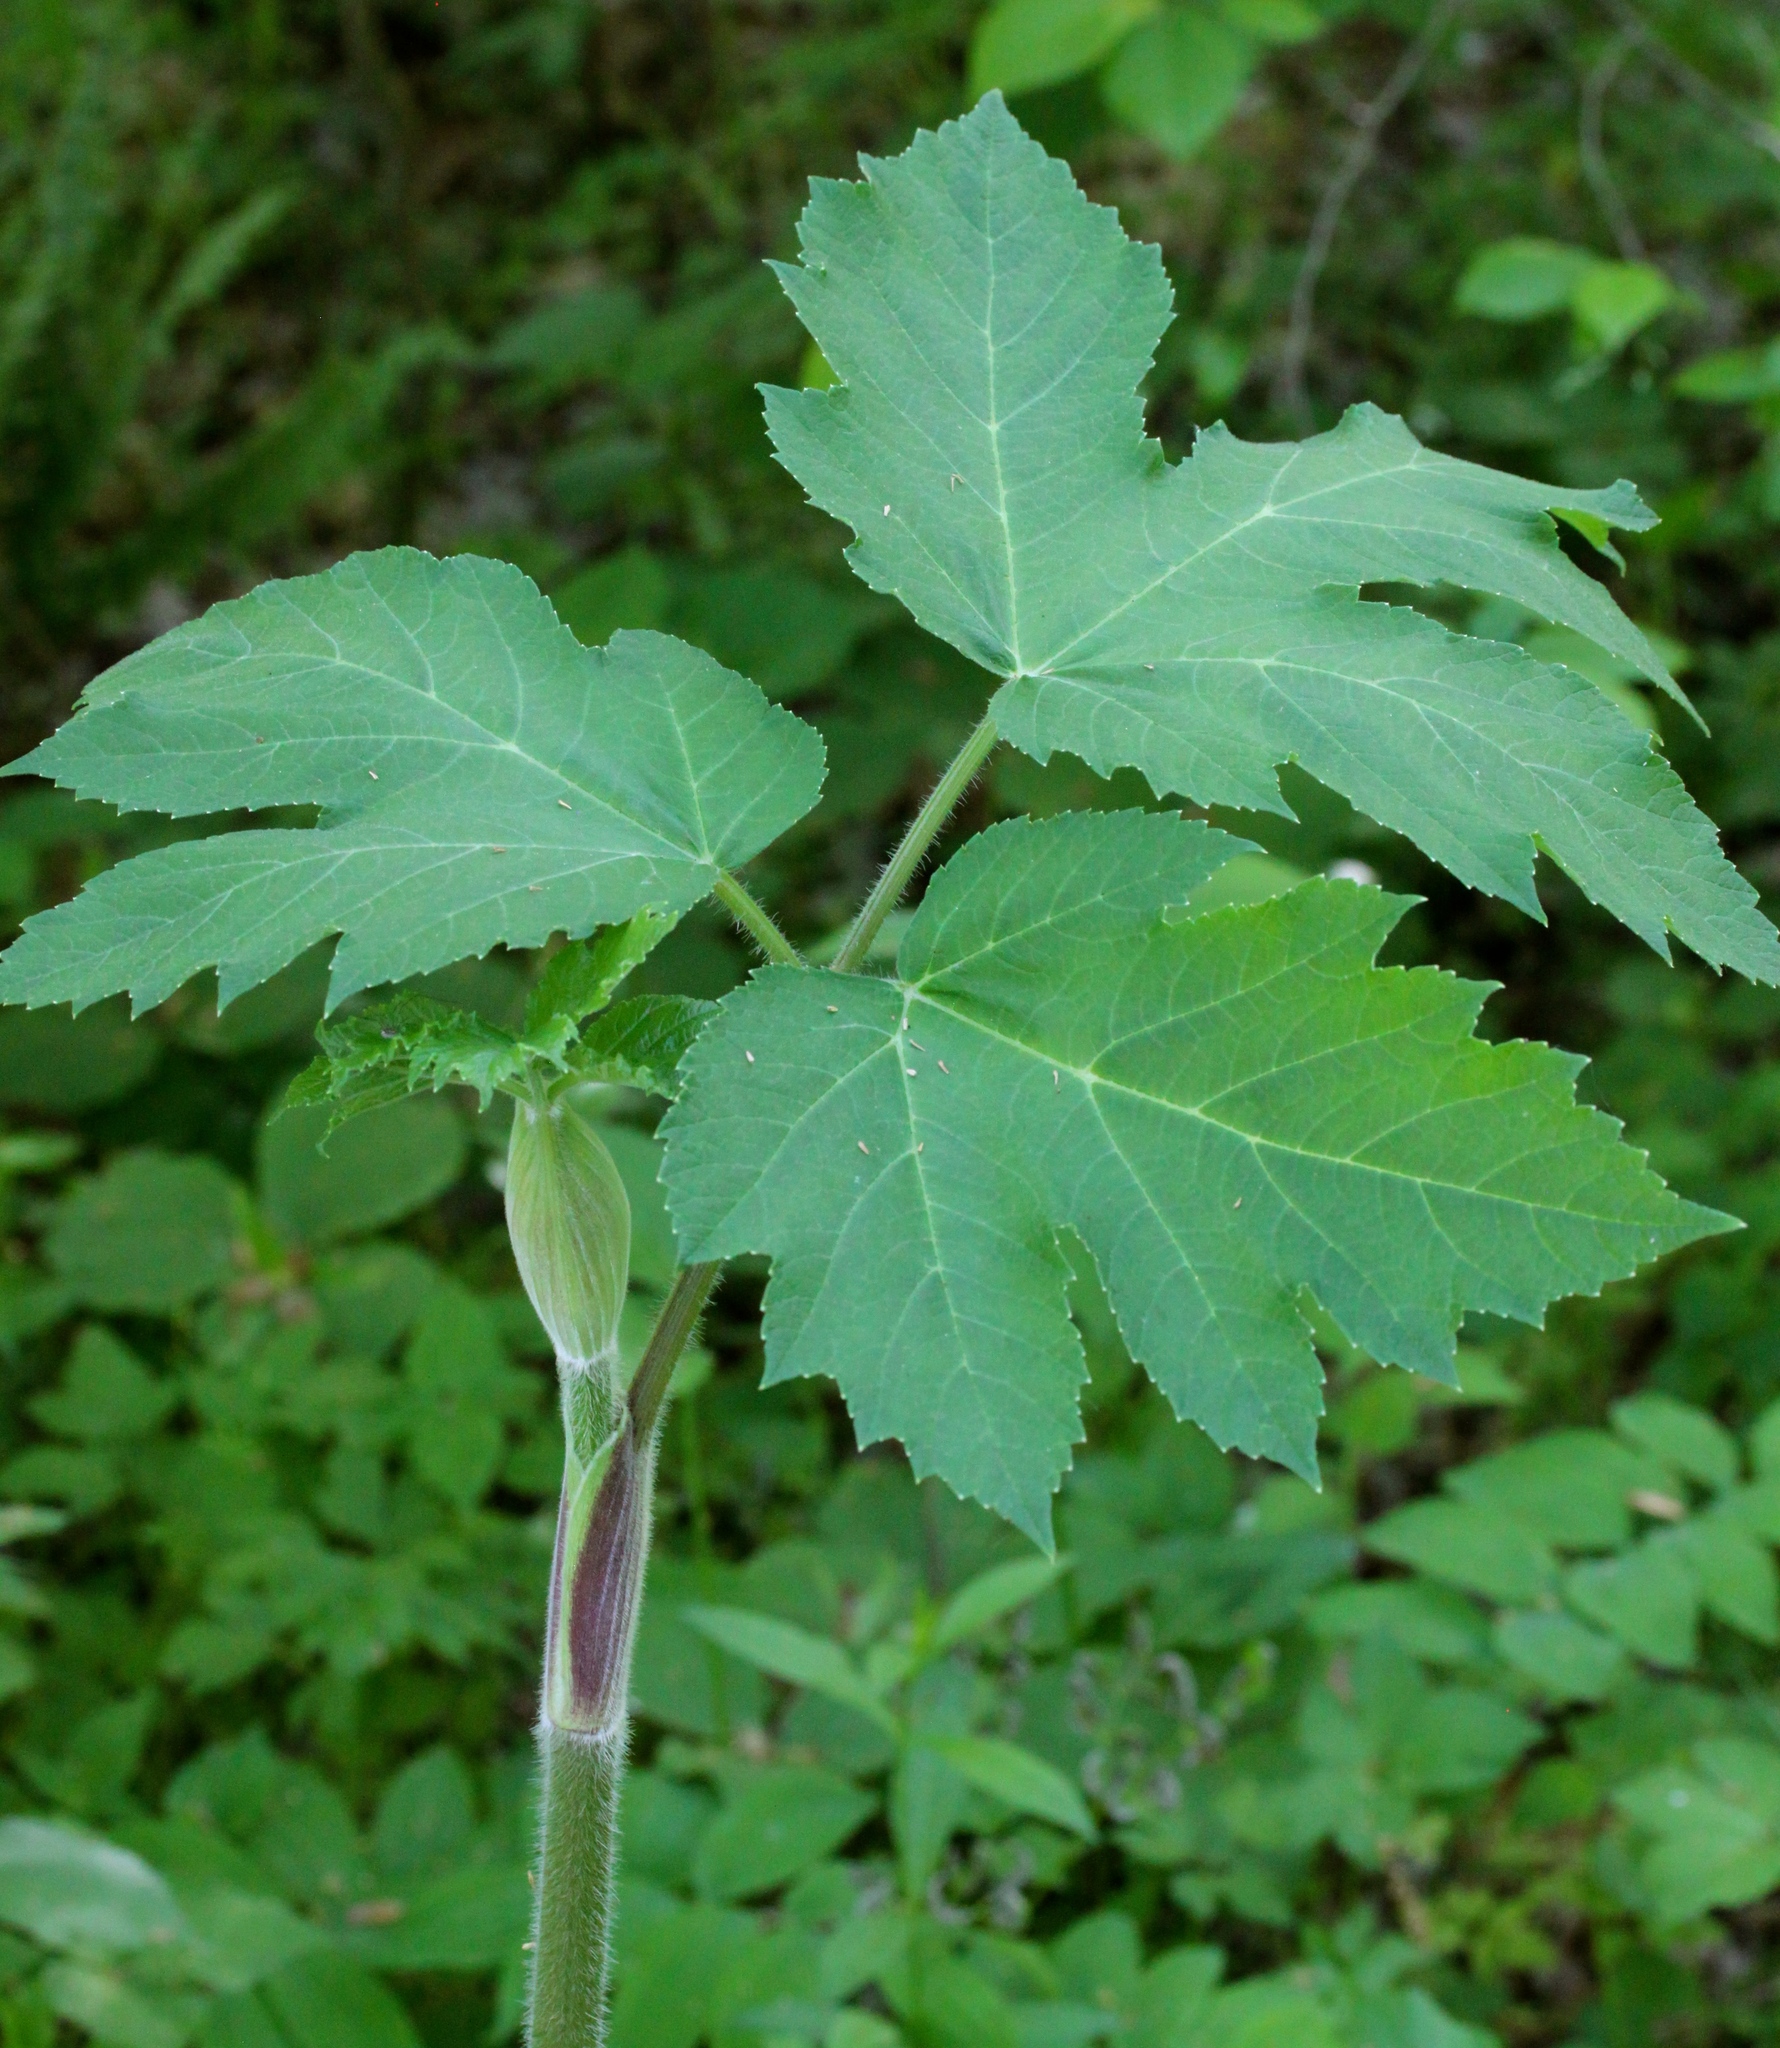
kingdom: Plantae
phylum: Tracheophyta
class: Magnoliopsida
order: Apiales
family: Apiaceae
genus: Heracleum
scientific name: Heracleum maximum
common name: American cow parsnip
